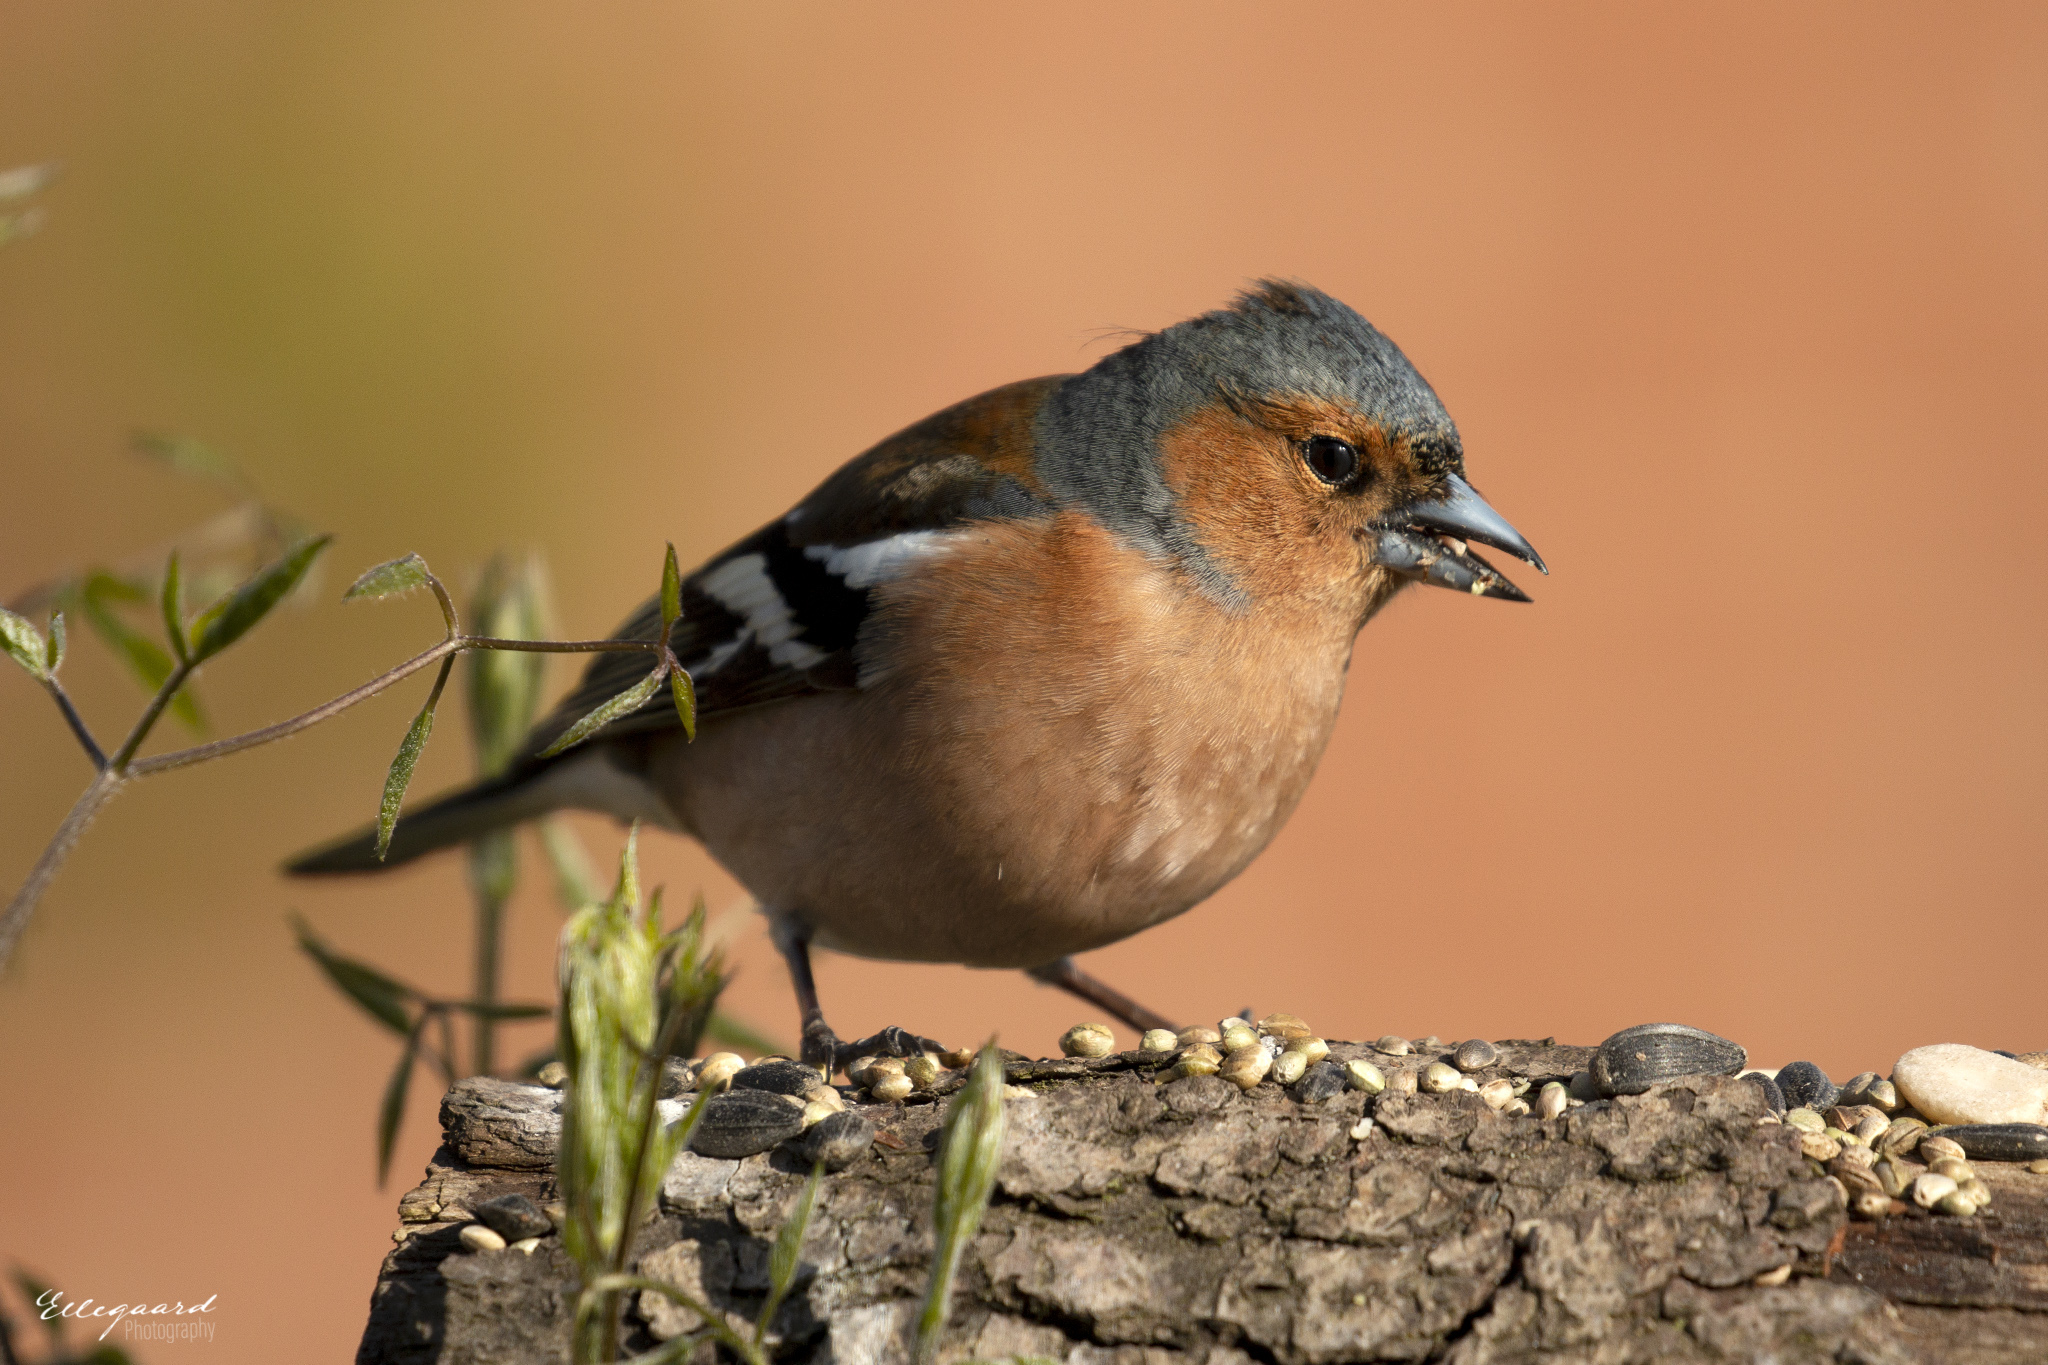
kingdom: Animalia
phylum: Chordata
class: Aves
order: Passeriformes
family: Fringillidae
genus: Fringilla
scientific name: Fringilla coelebs
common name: Common chaffinch
